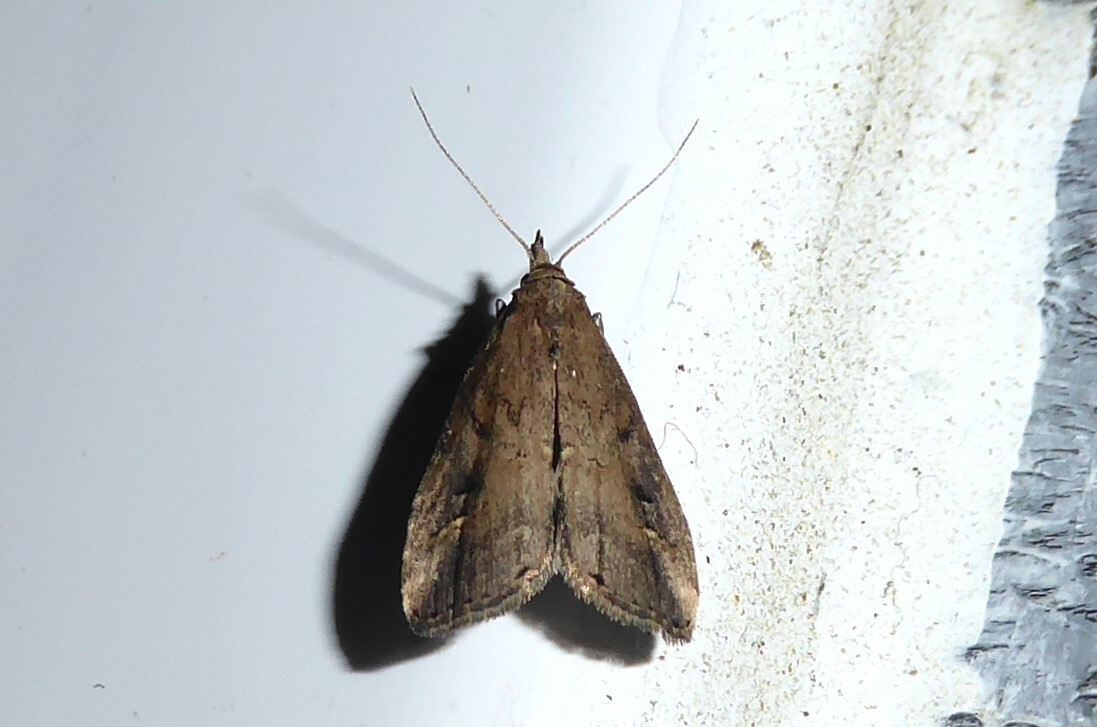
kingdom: Animalia
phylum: Arthropoda
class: Insecta
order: Lepidoptera
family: Erebidae
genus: Schrankia
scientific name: Schrankia costaestrigalis
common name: Pinion-streaked snout
